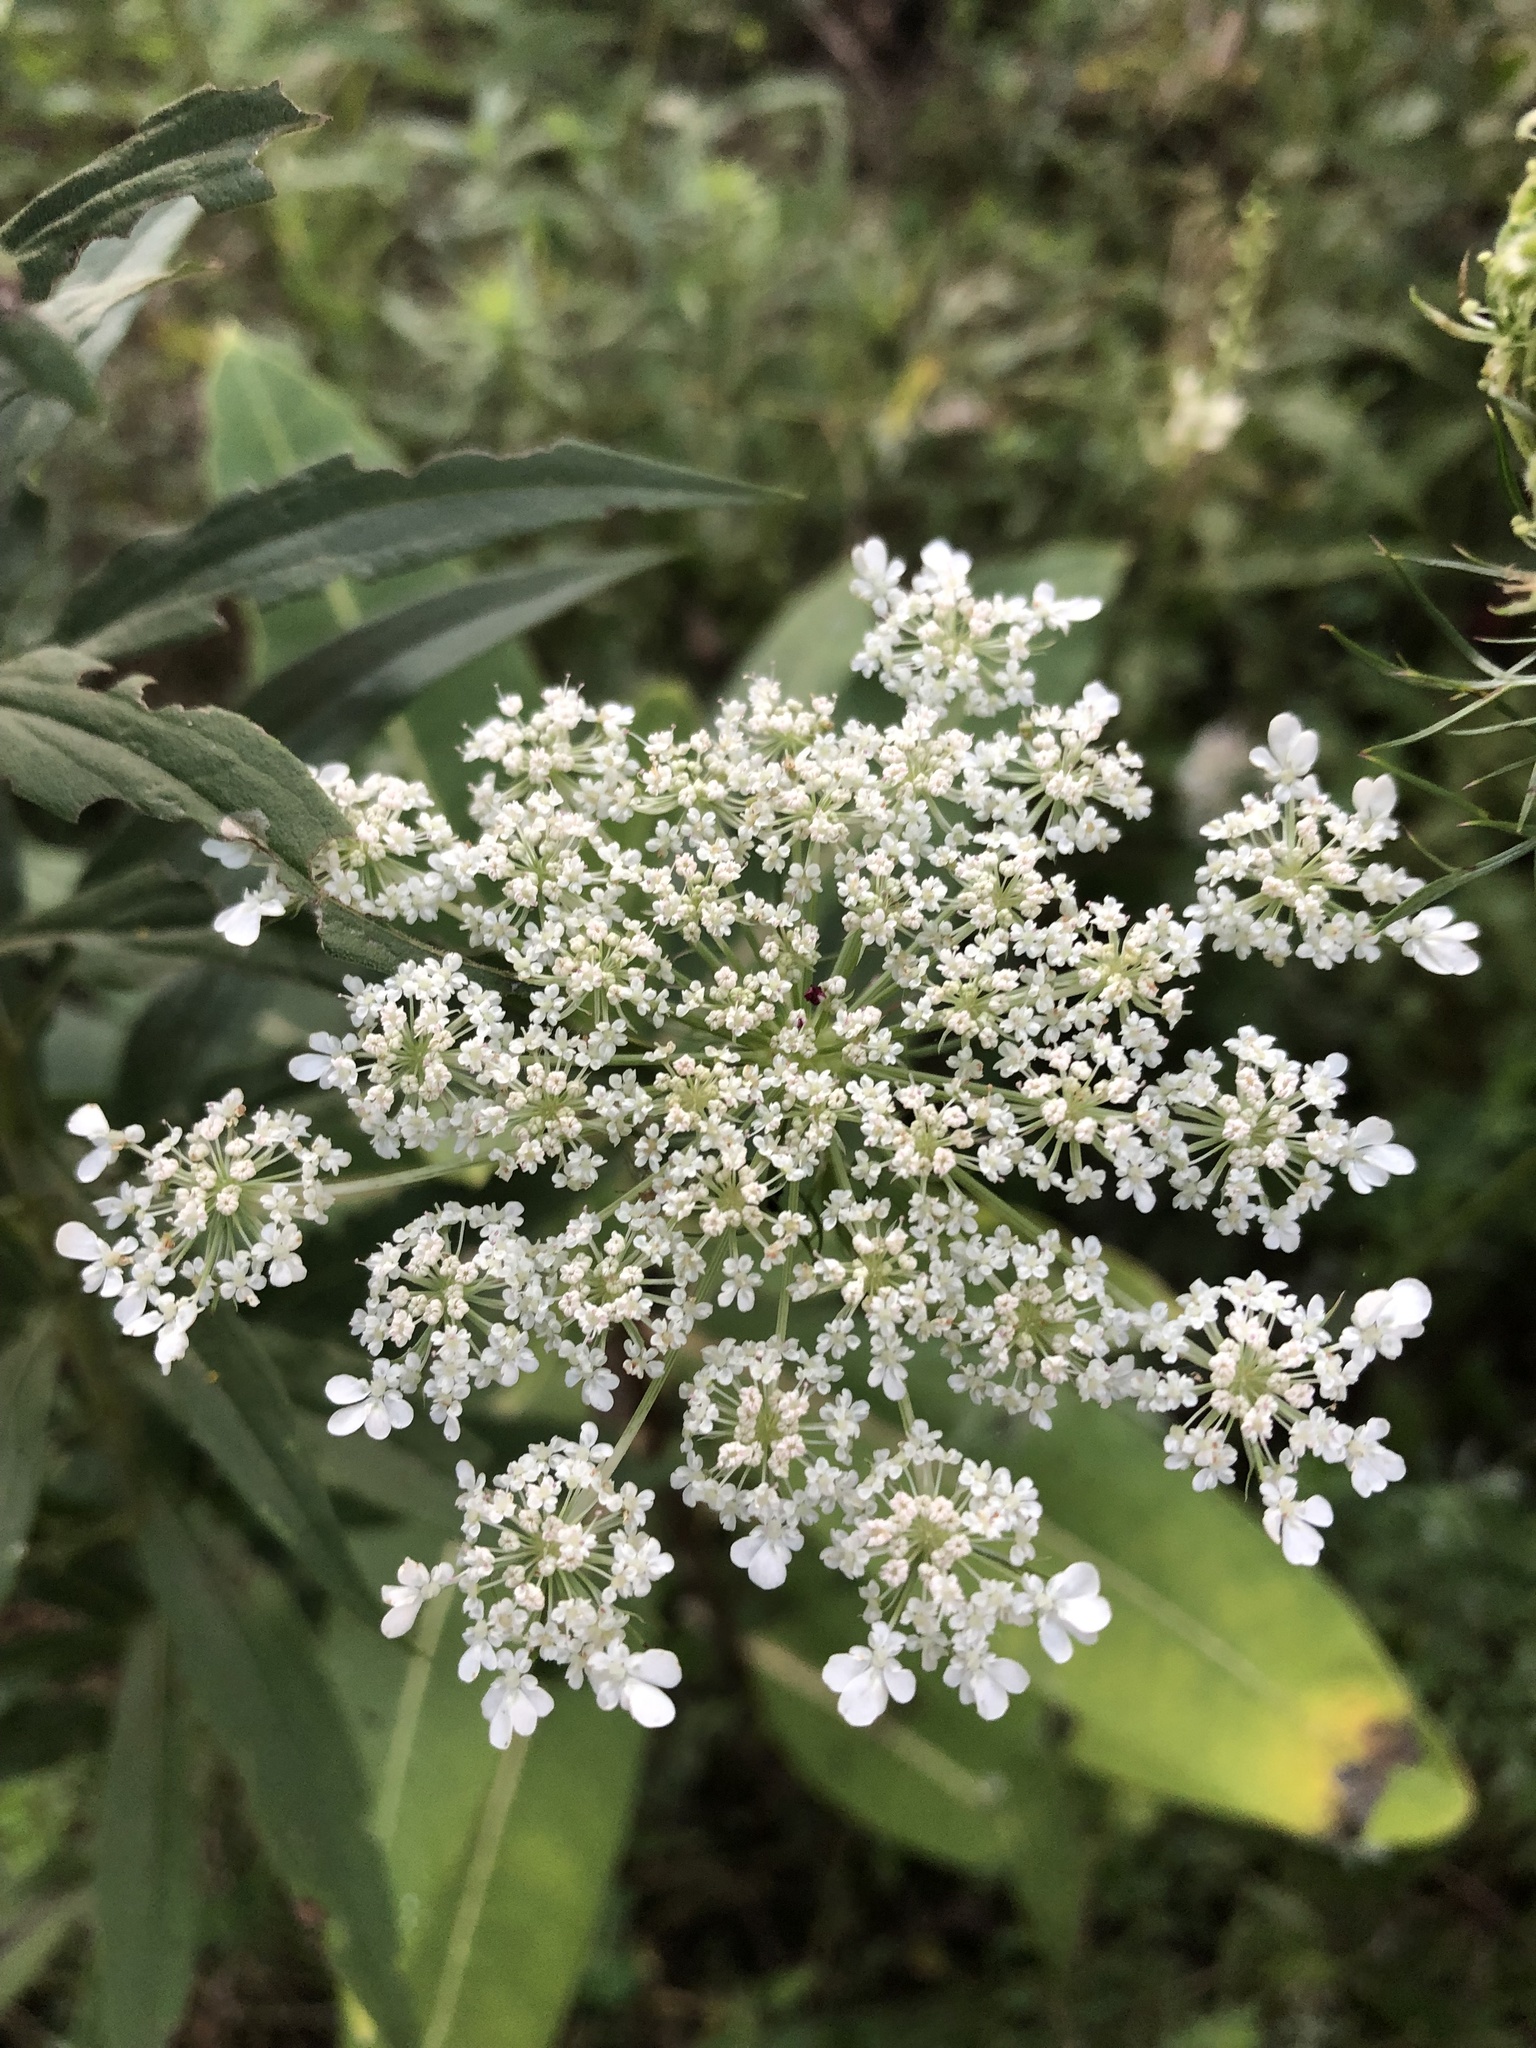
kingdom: Plantae
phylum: Tracheophyta
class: Magnoliopsida
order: Apiales
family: Apiaceae
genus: Daucus
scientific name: Daucus carota
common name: Wild carrot
